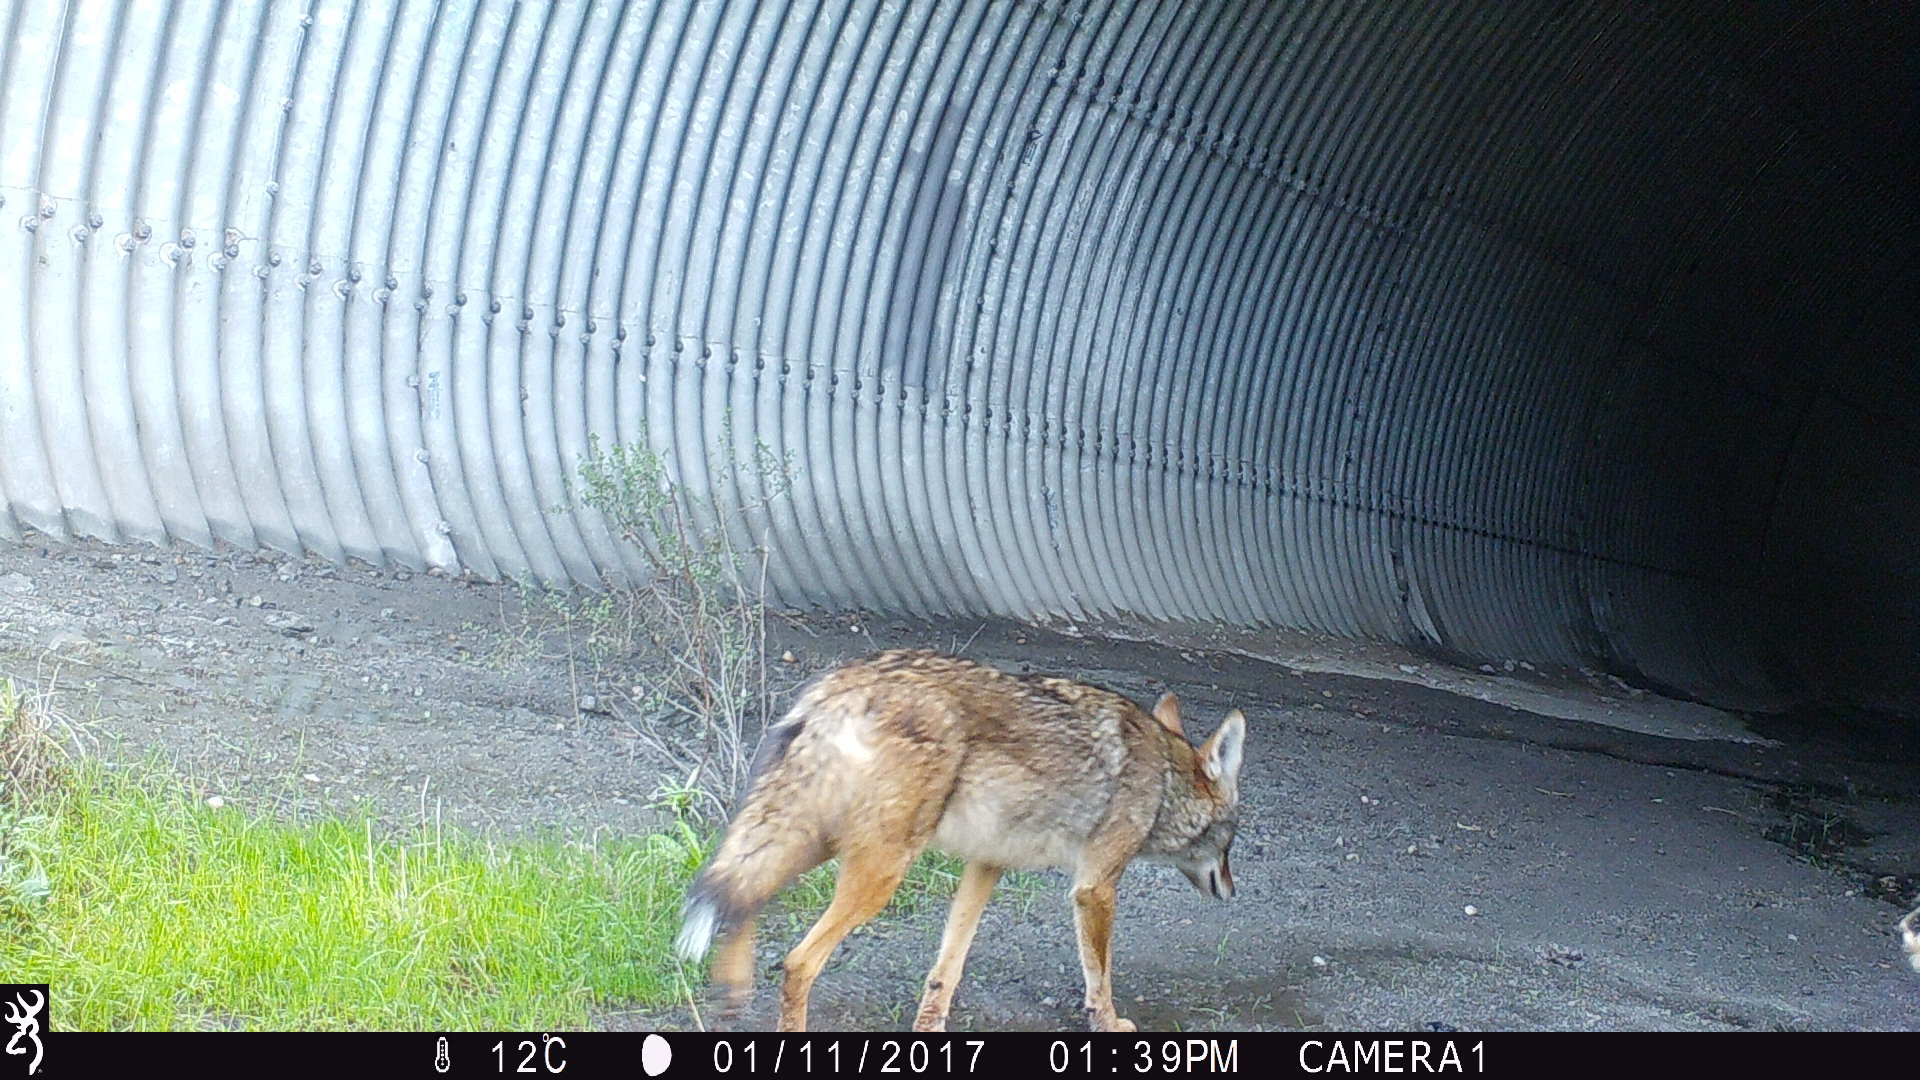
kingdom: Animalia
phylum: Chordata
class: Mammalia
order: Carnivora
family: Canidae
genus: Canis
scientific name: Canis latrans
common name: Coyote
